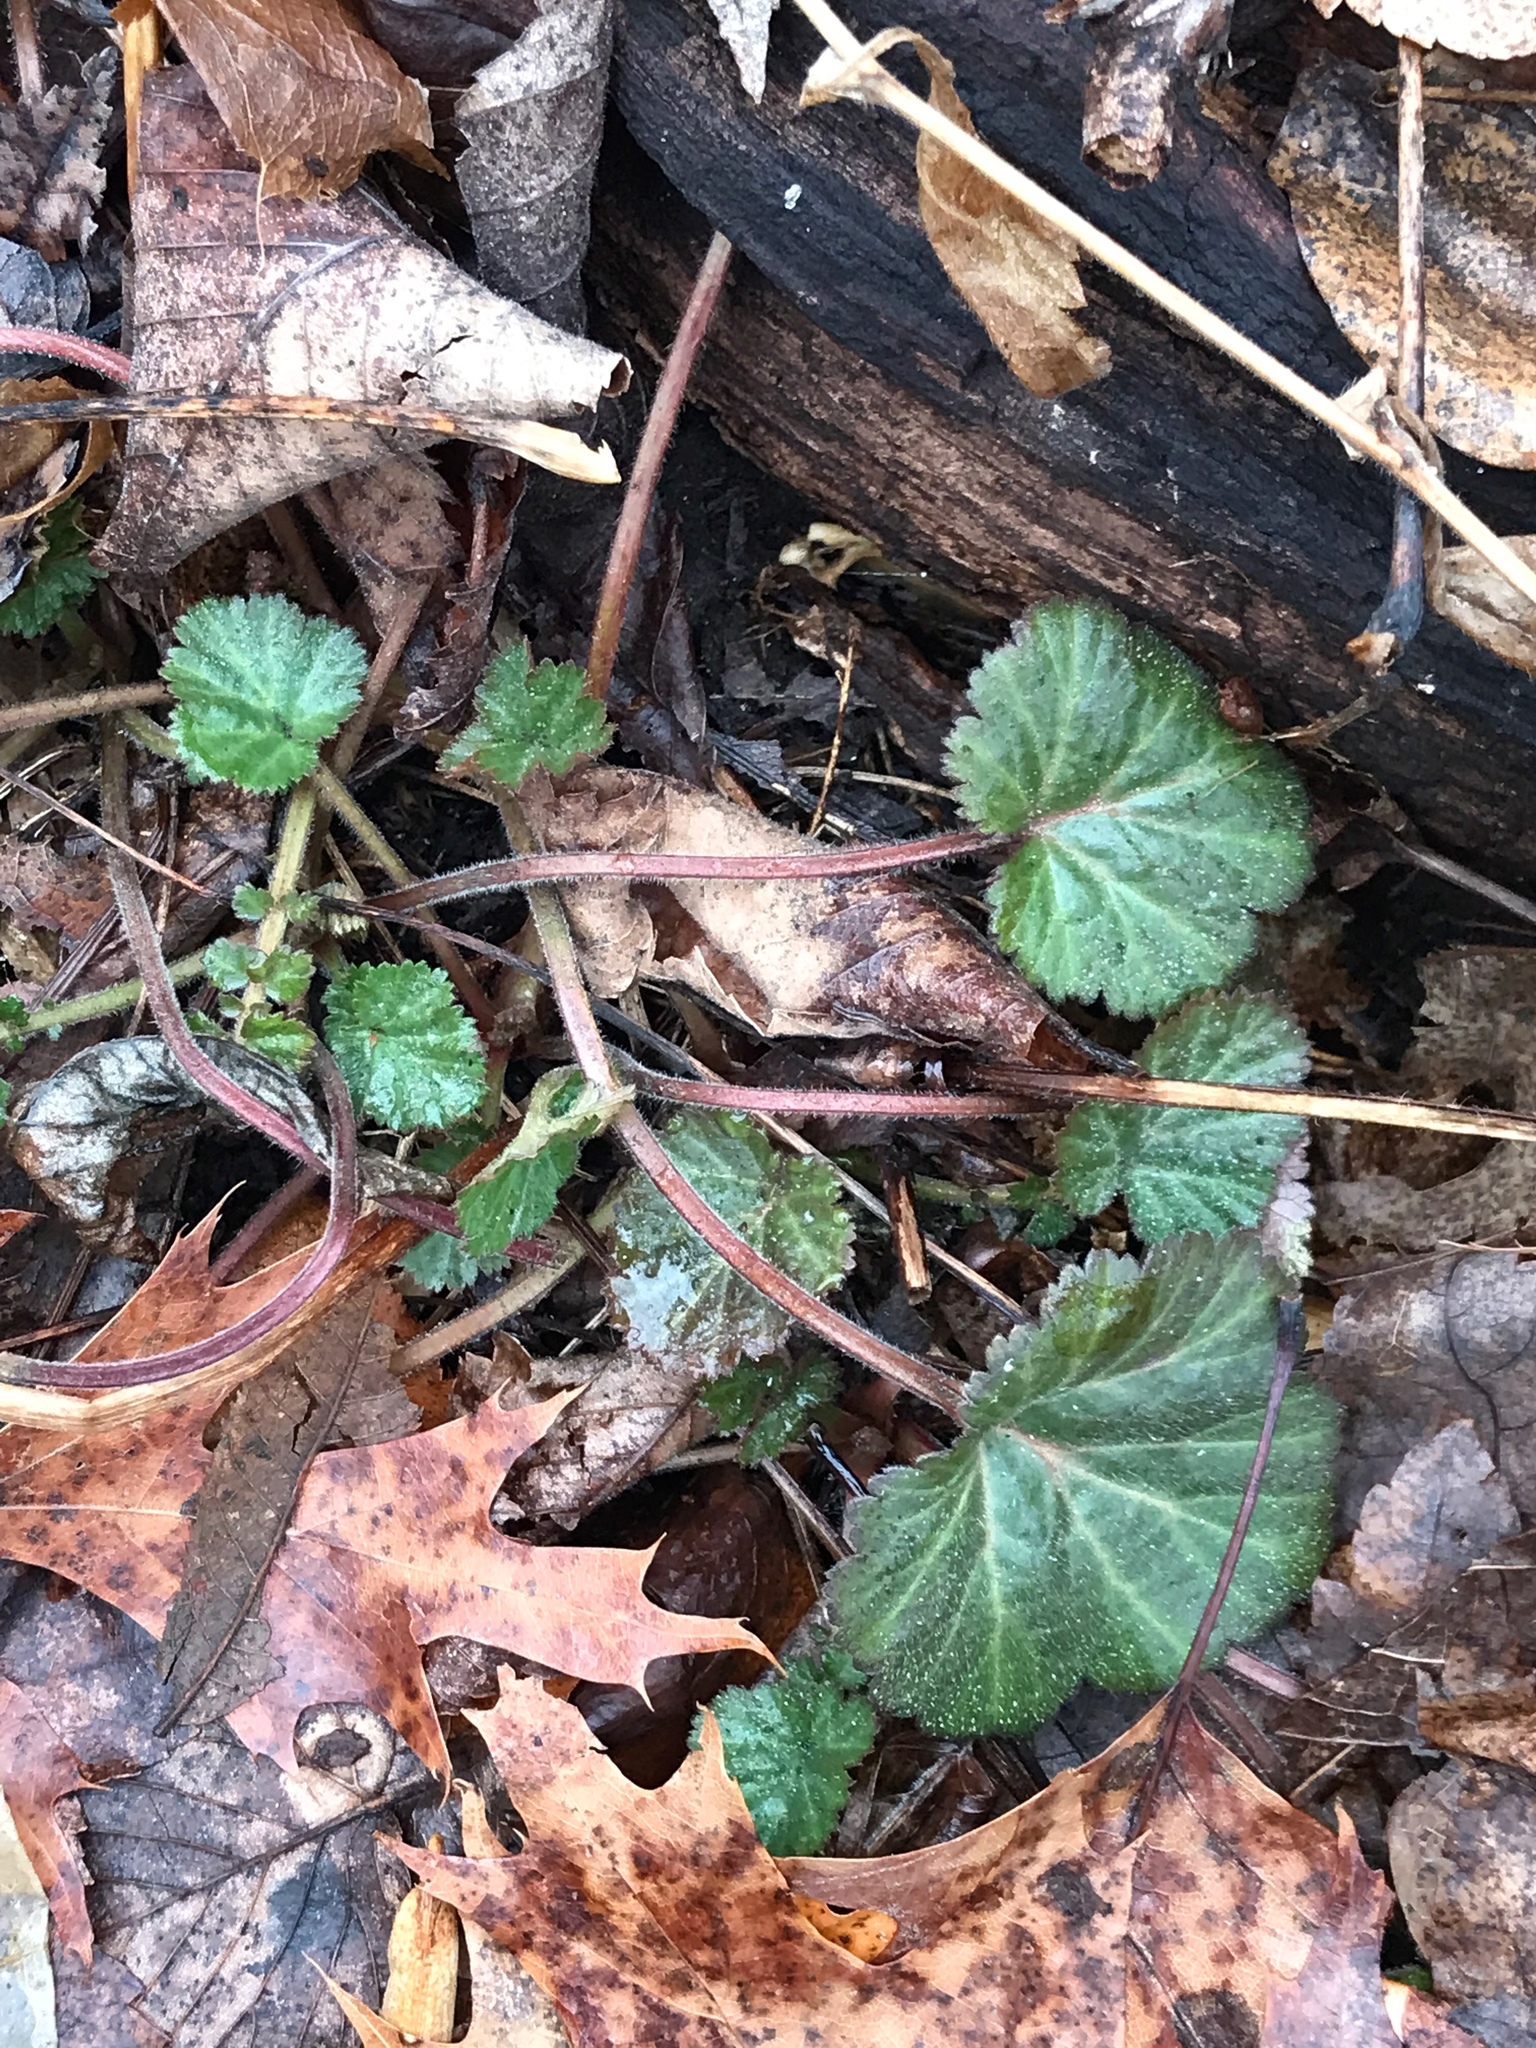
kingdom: Plantae
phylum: Tracheophyta
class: Magnoliopsida
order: Rosales
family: Rosaceae
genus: Geum
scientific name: Geum canadense
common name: White avens
